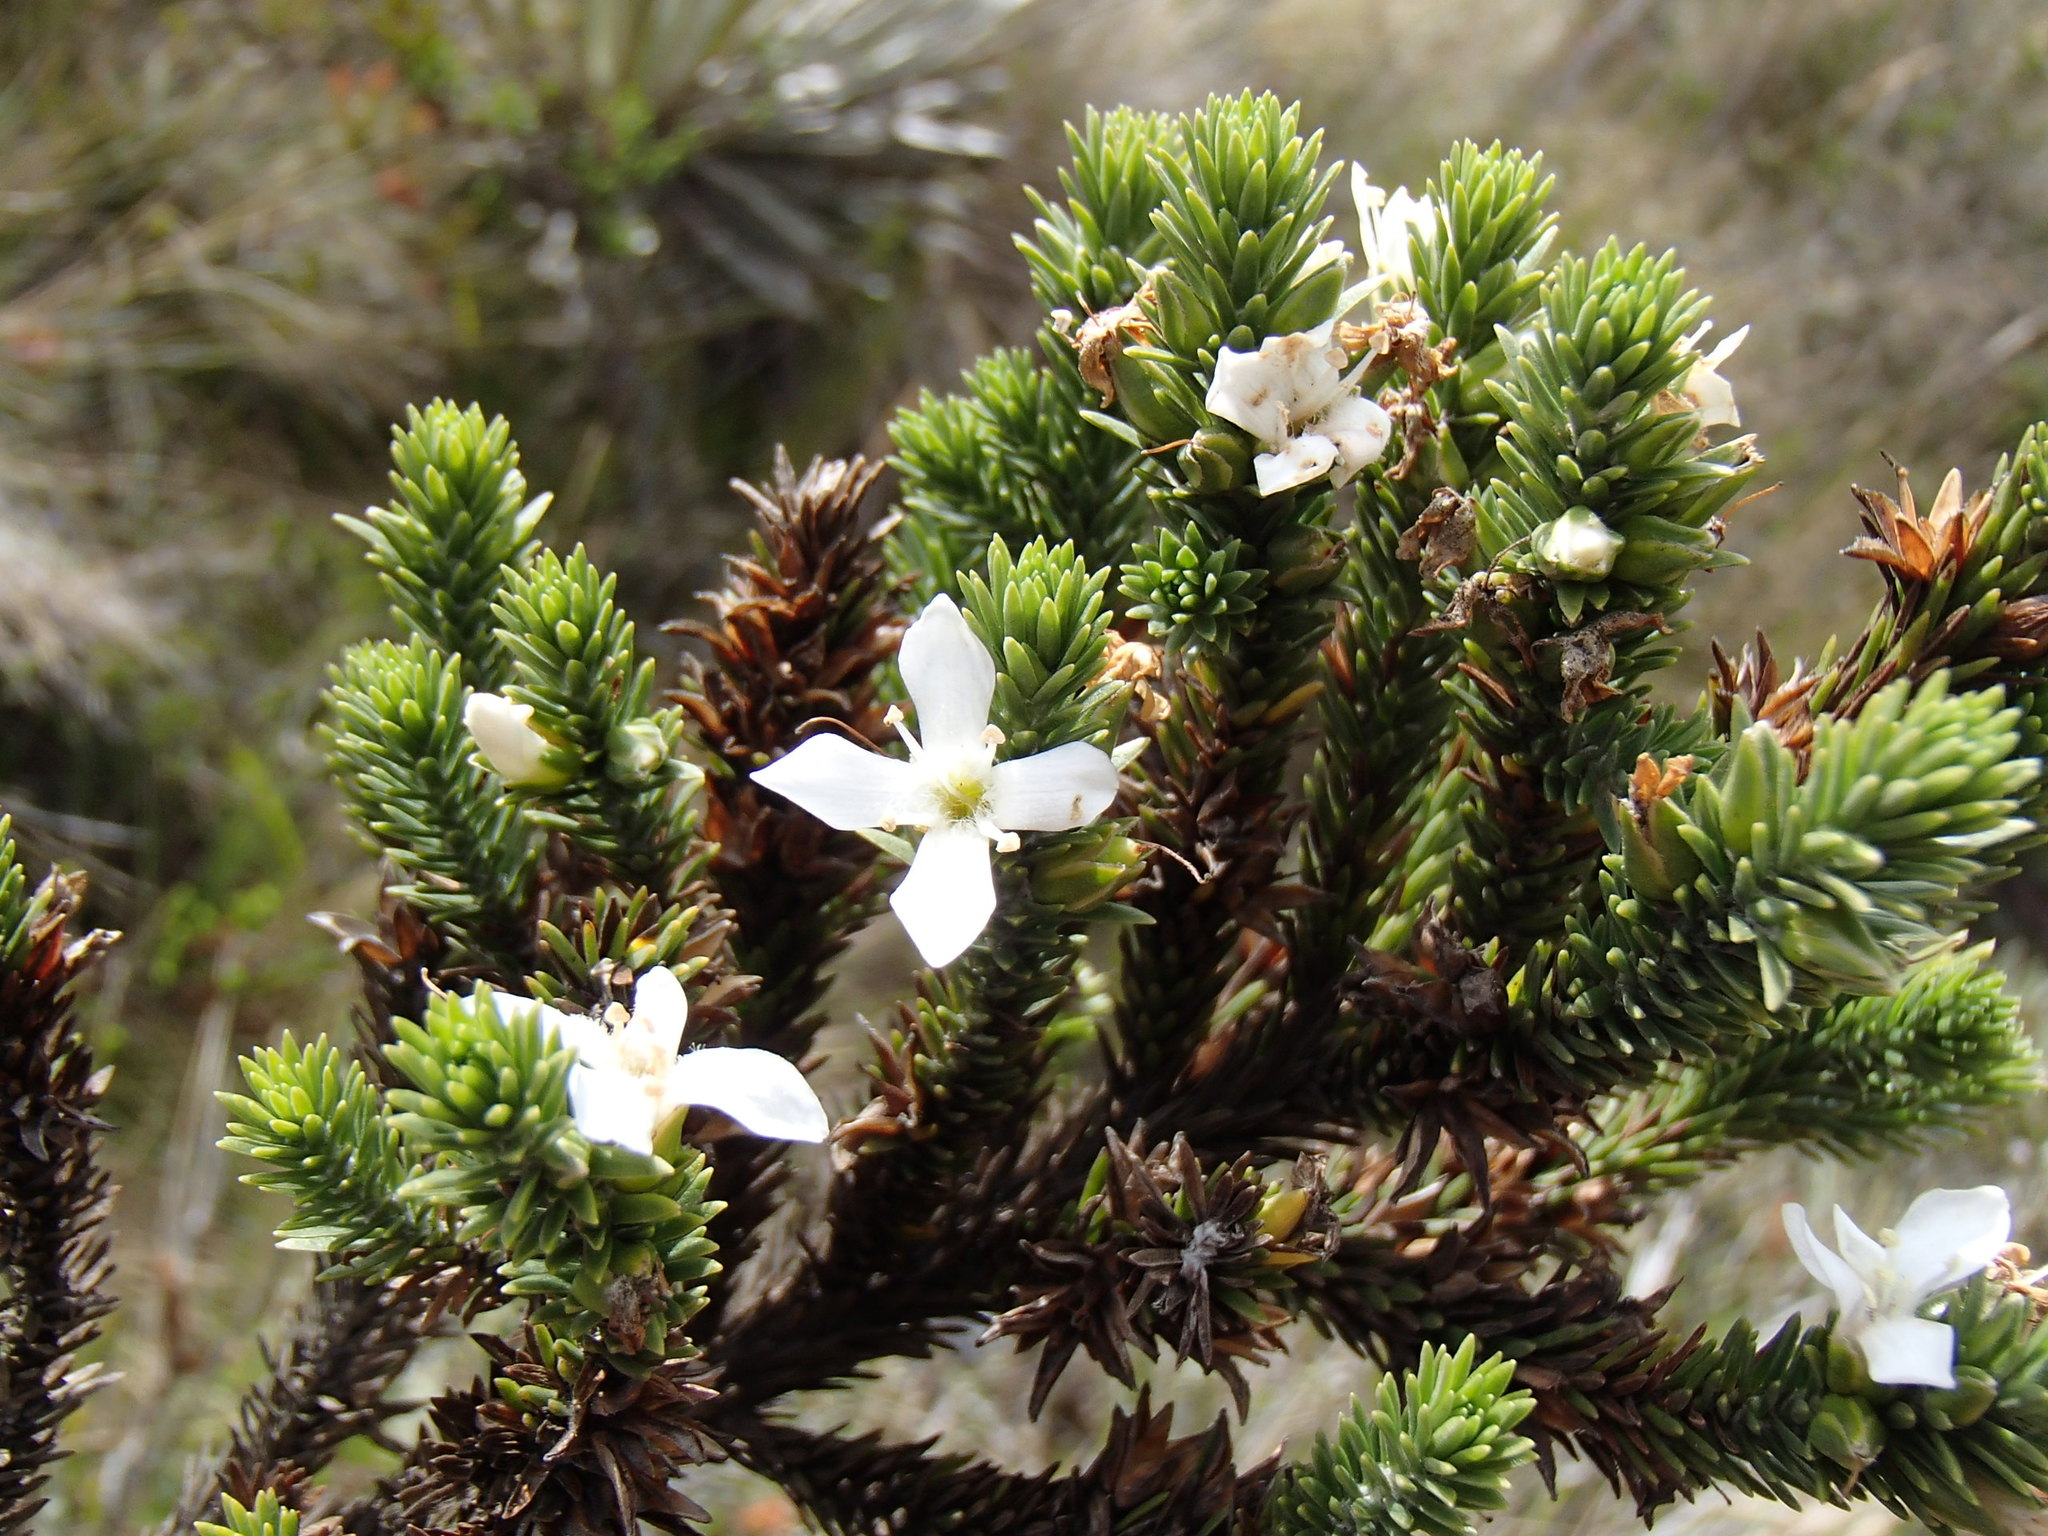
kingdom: Plantae
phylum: Tracheophyta
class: Magnoliopsida
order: Lamiales
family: Plantaginaceae
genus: Aragoa
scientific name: Aragoa abietina
